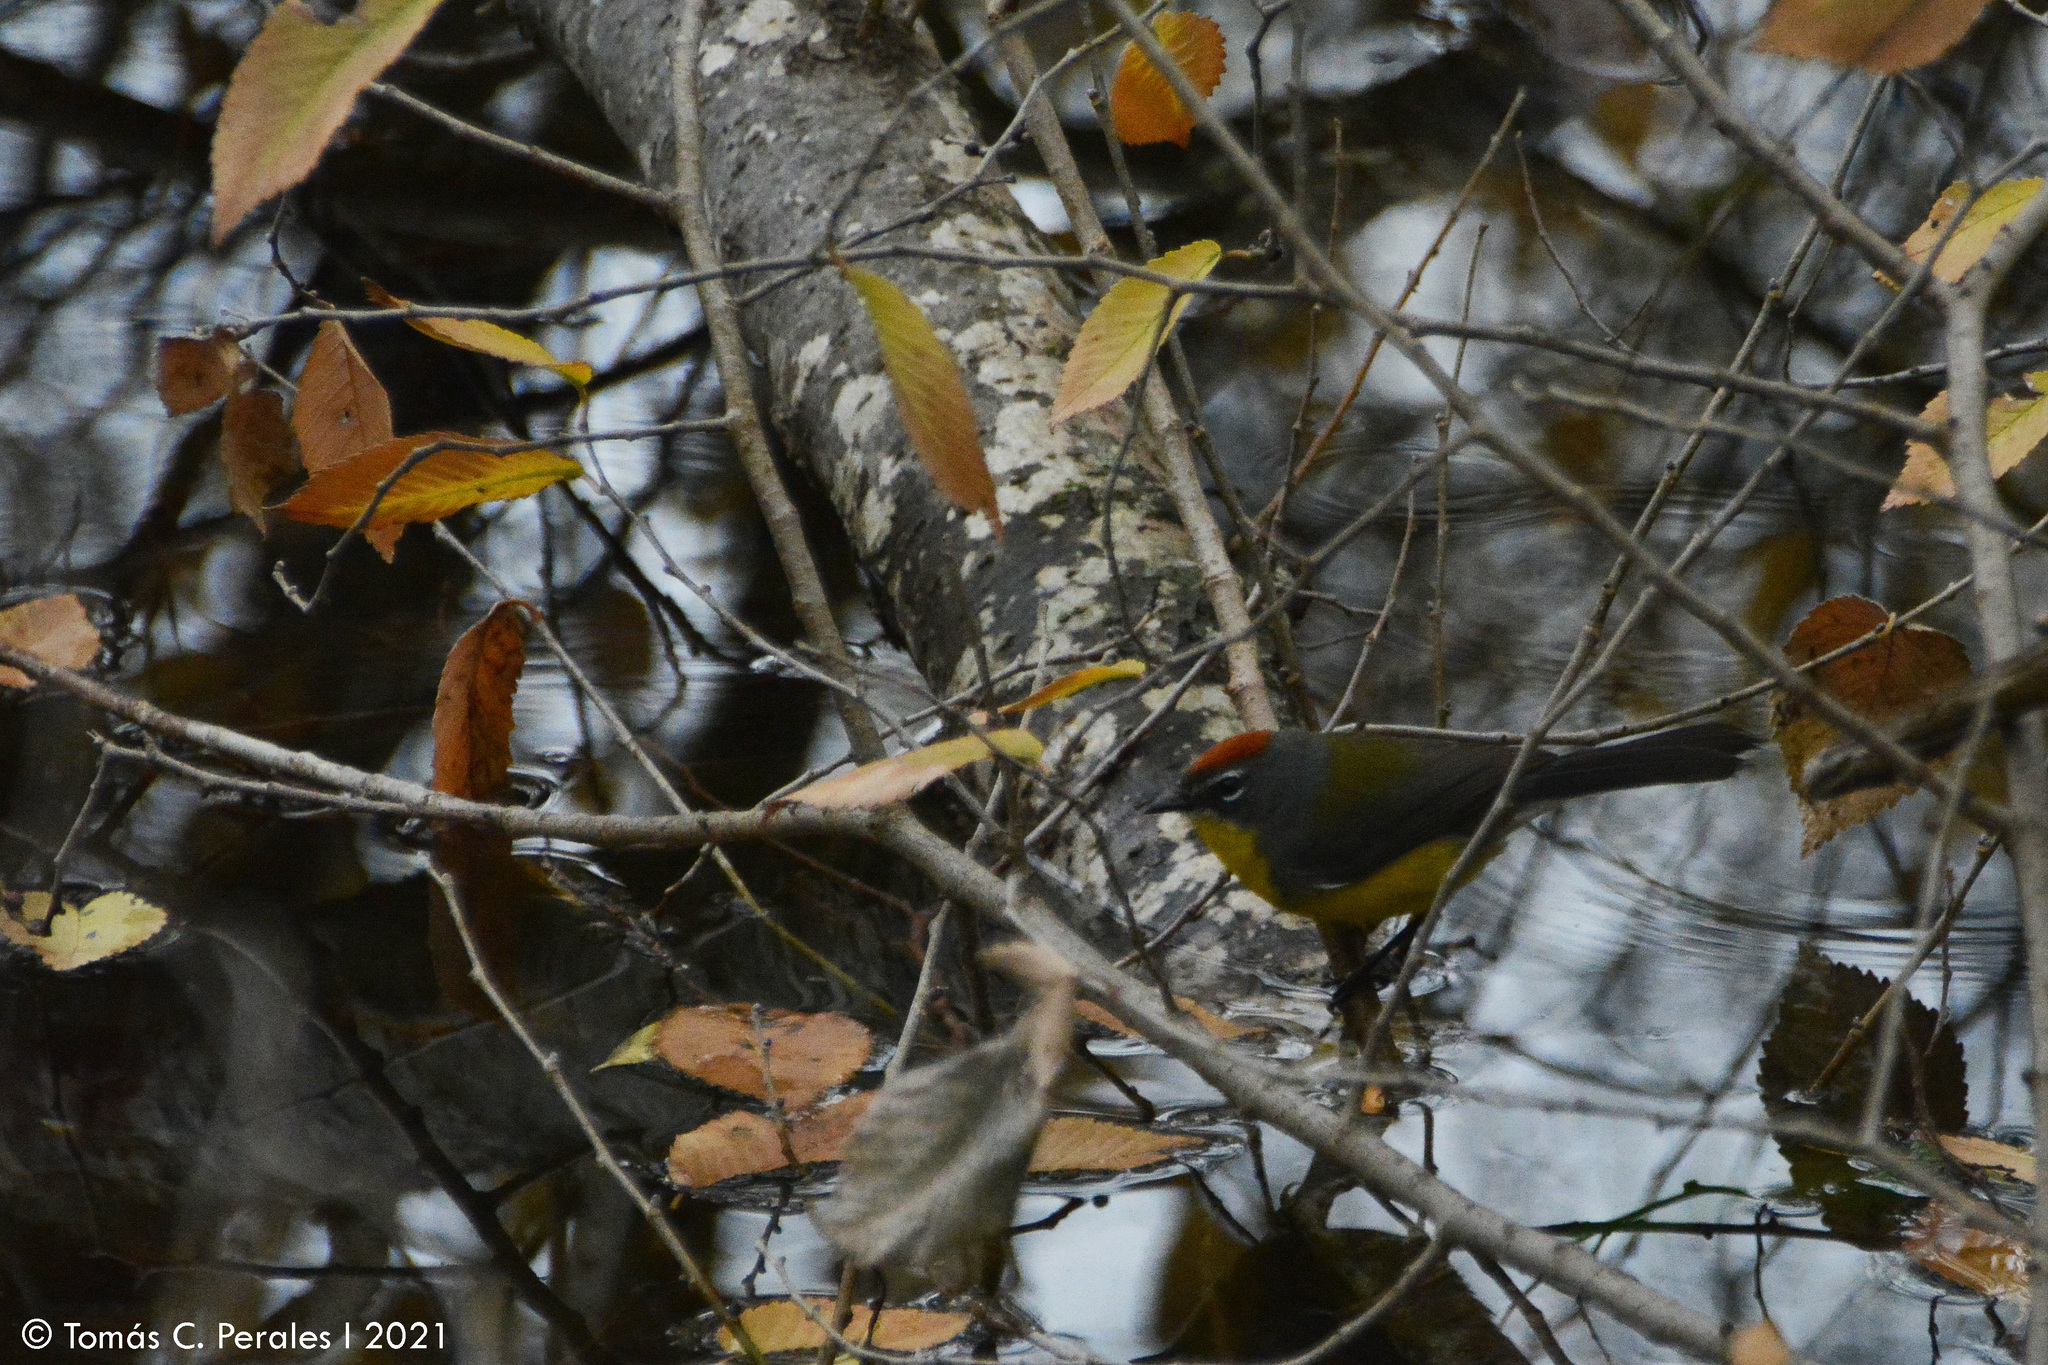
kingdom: Animalia
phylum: Chordata
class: Aves
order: Passeriformes
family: Parulidae
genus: Myioborus
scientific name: Myioborus brunniceps
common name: Brown-capped whitestart
